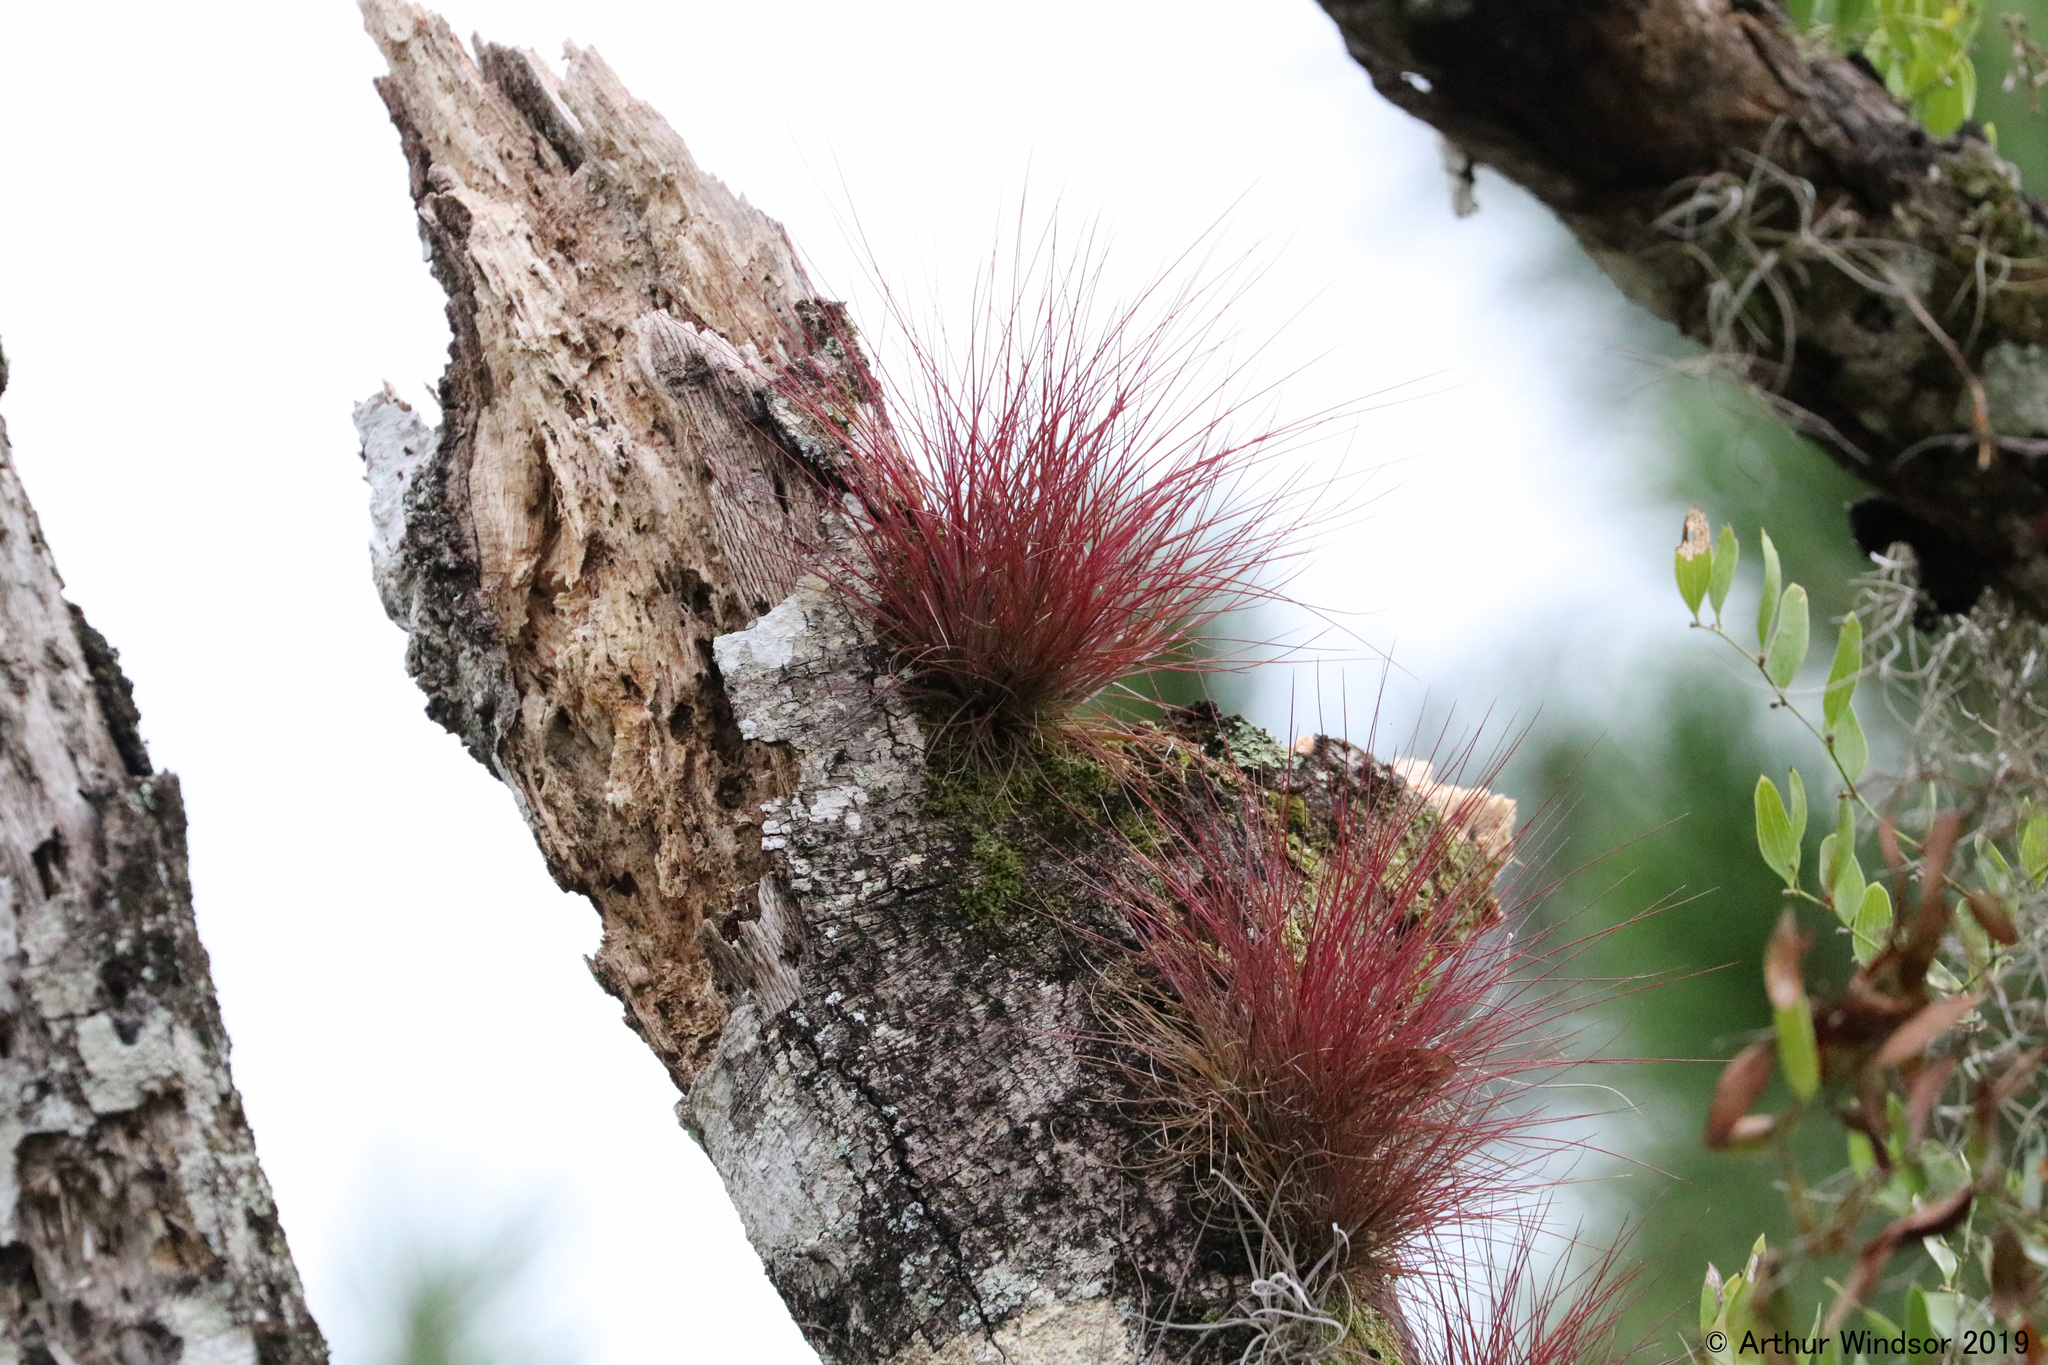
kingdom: Plantae
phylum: Tracheophyta
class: Liliopsida
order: Poales
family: Bromeliaceae
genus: Tillandsia
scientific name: Tillandsia setacea
